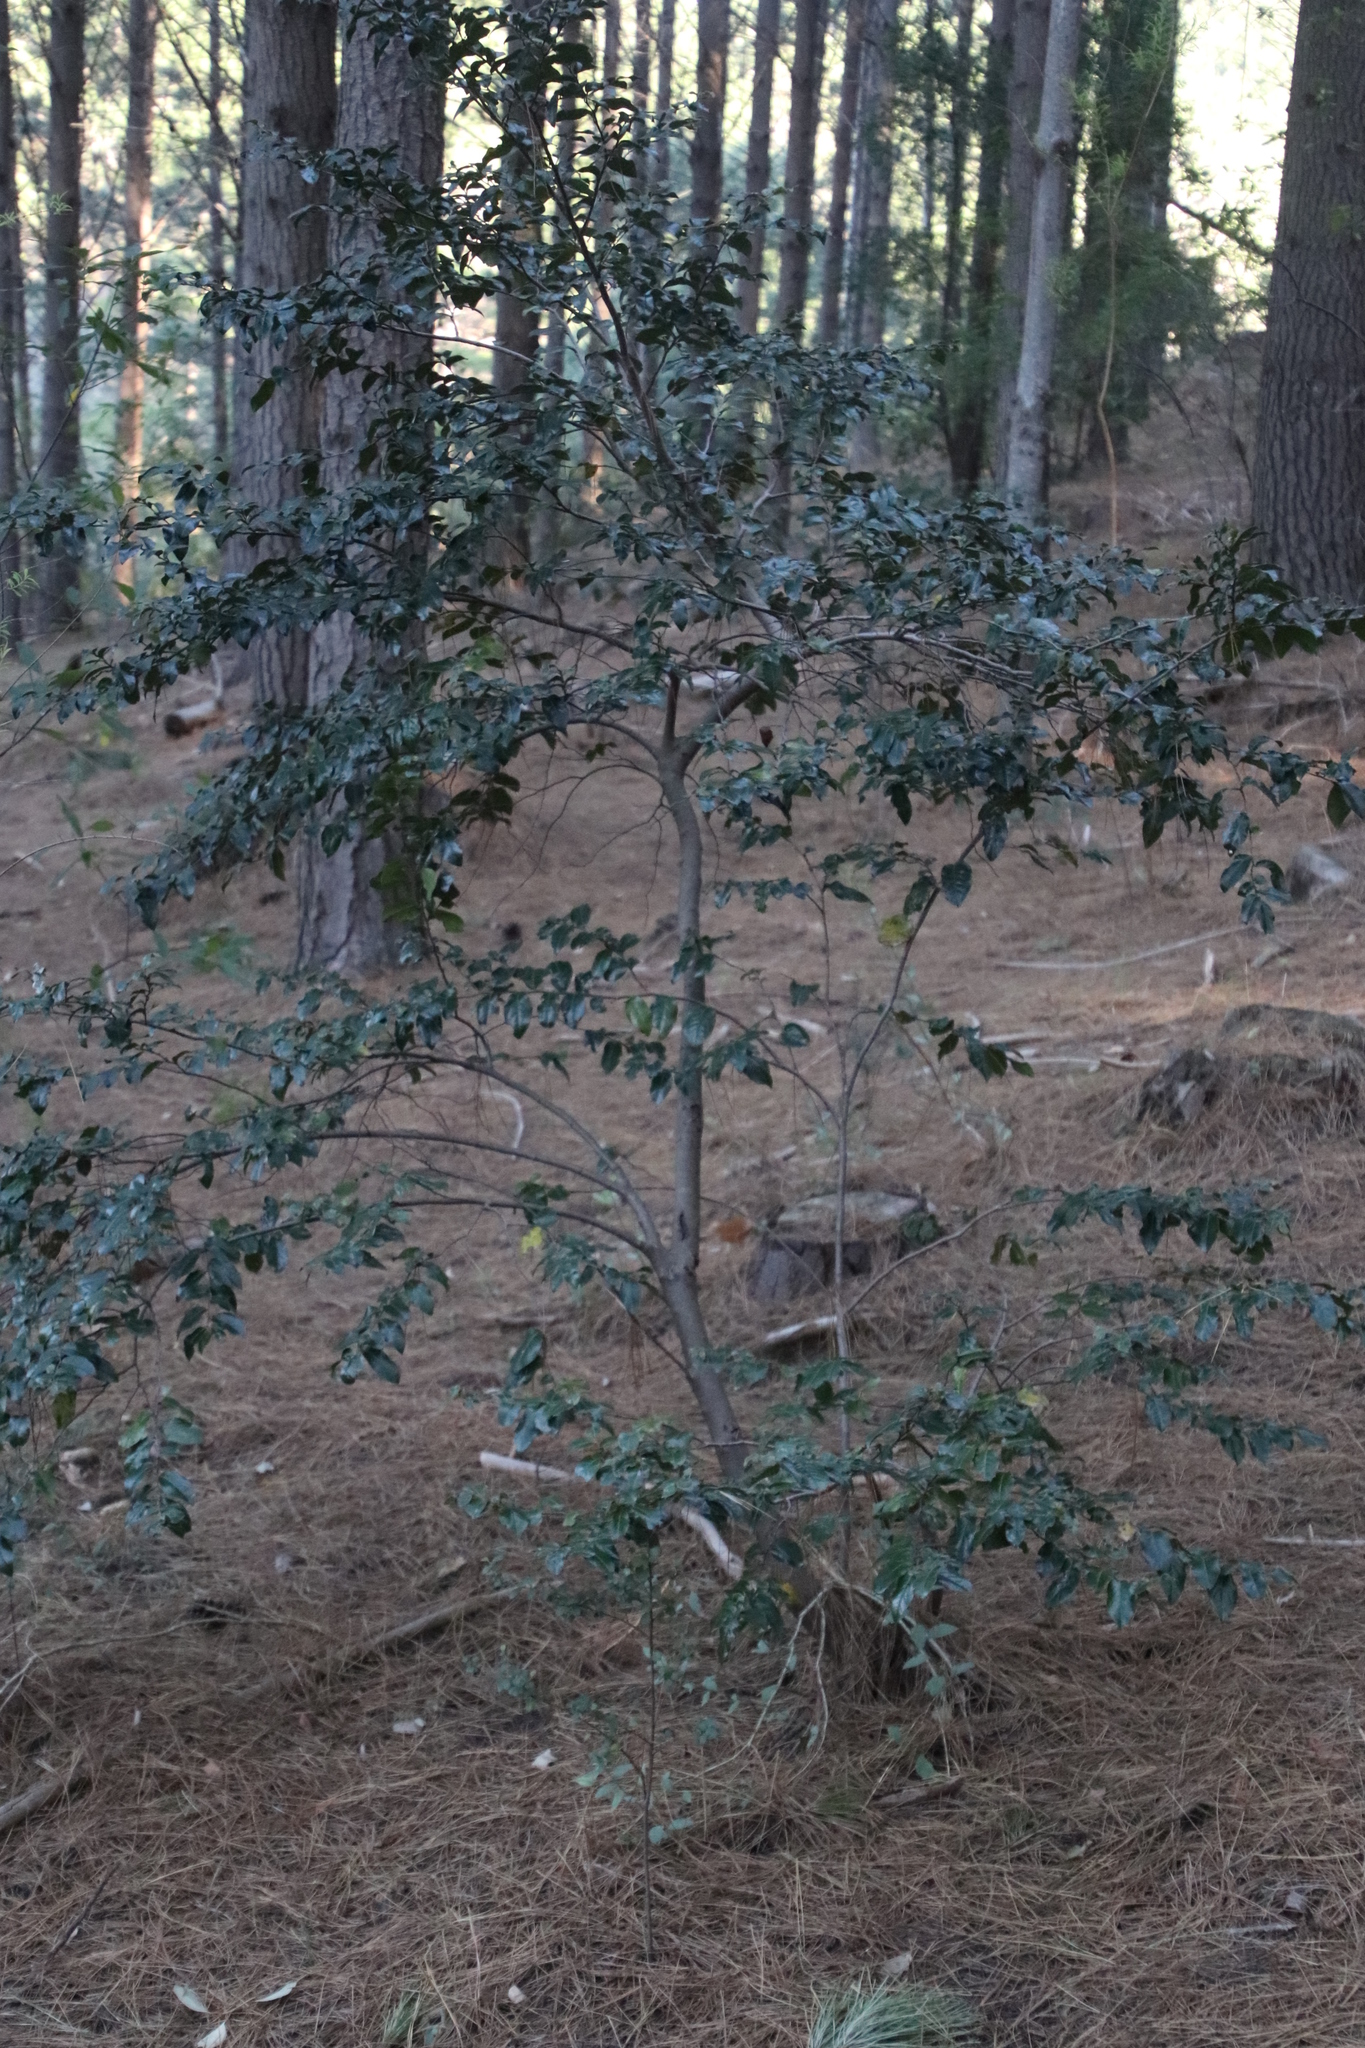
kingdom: Plantae
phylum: Tracheophyta
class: Magnoliopsida
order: Ericales
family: Ebenaceae
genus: Diospyros
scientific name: Diospyros whyteana
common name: Bladder-nut
